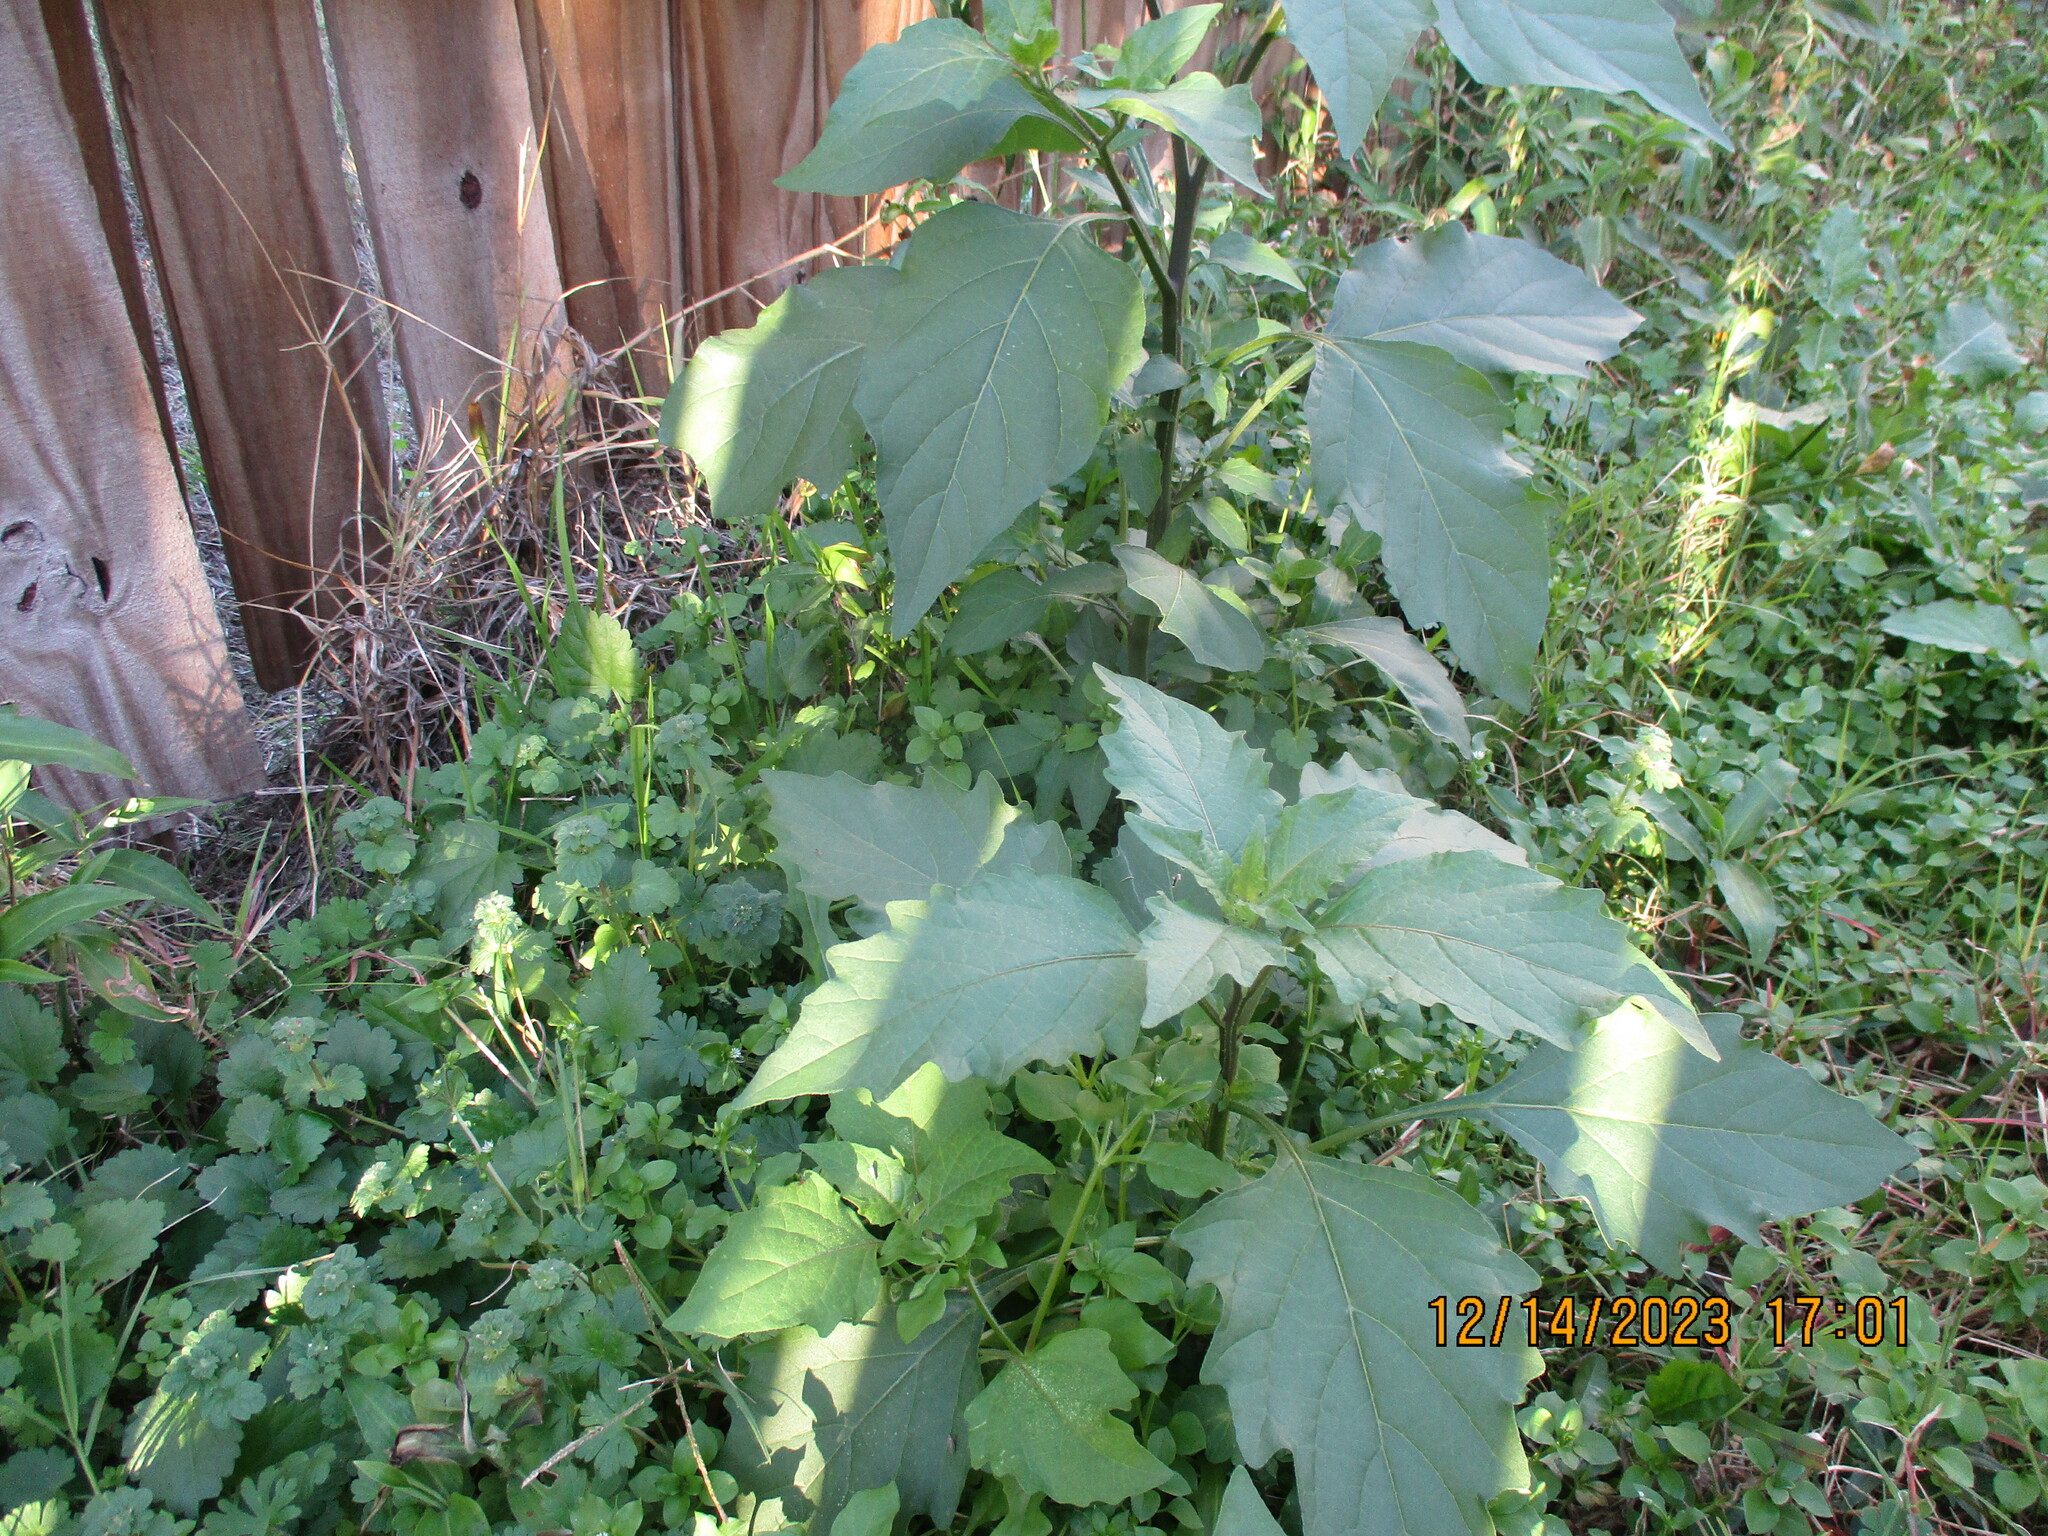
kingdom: Plantae
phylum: Tracheophyta
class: Magnoliopsida
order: Solanales
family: Solanaceae
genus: Solanum
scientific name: Solanum
